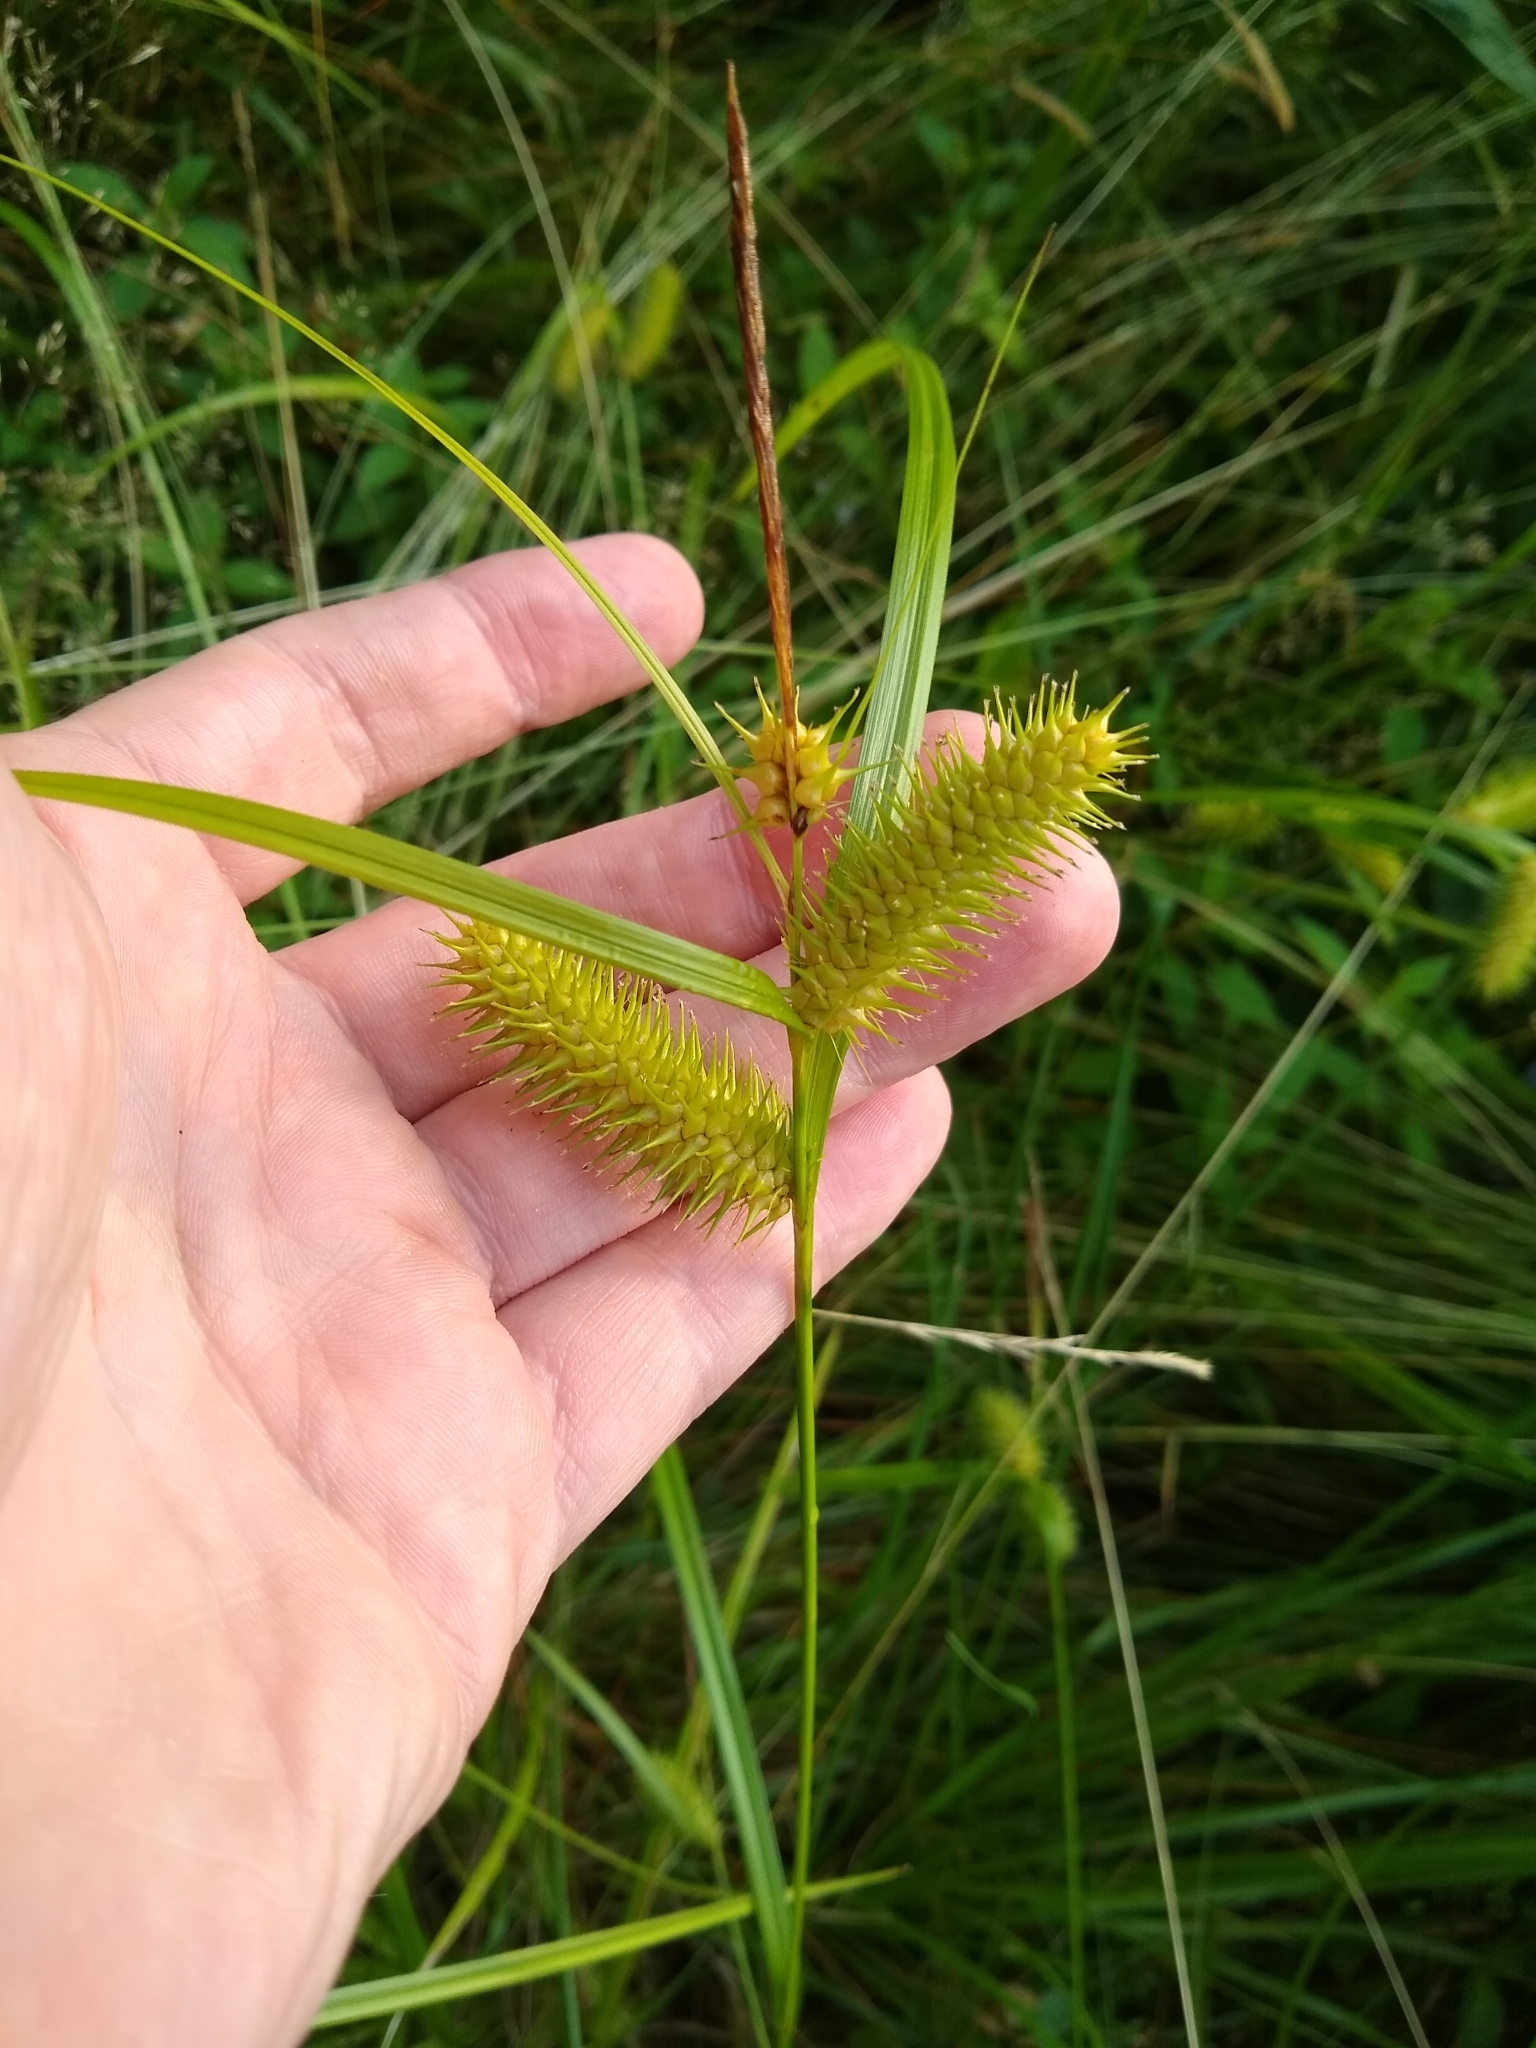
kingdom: Plantae
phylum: Tracheophyta
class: Liliopsida
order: Poales
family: Cyperaceae
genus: Carex
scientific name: Carex lurida
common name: Sallow sedge
